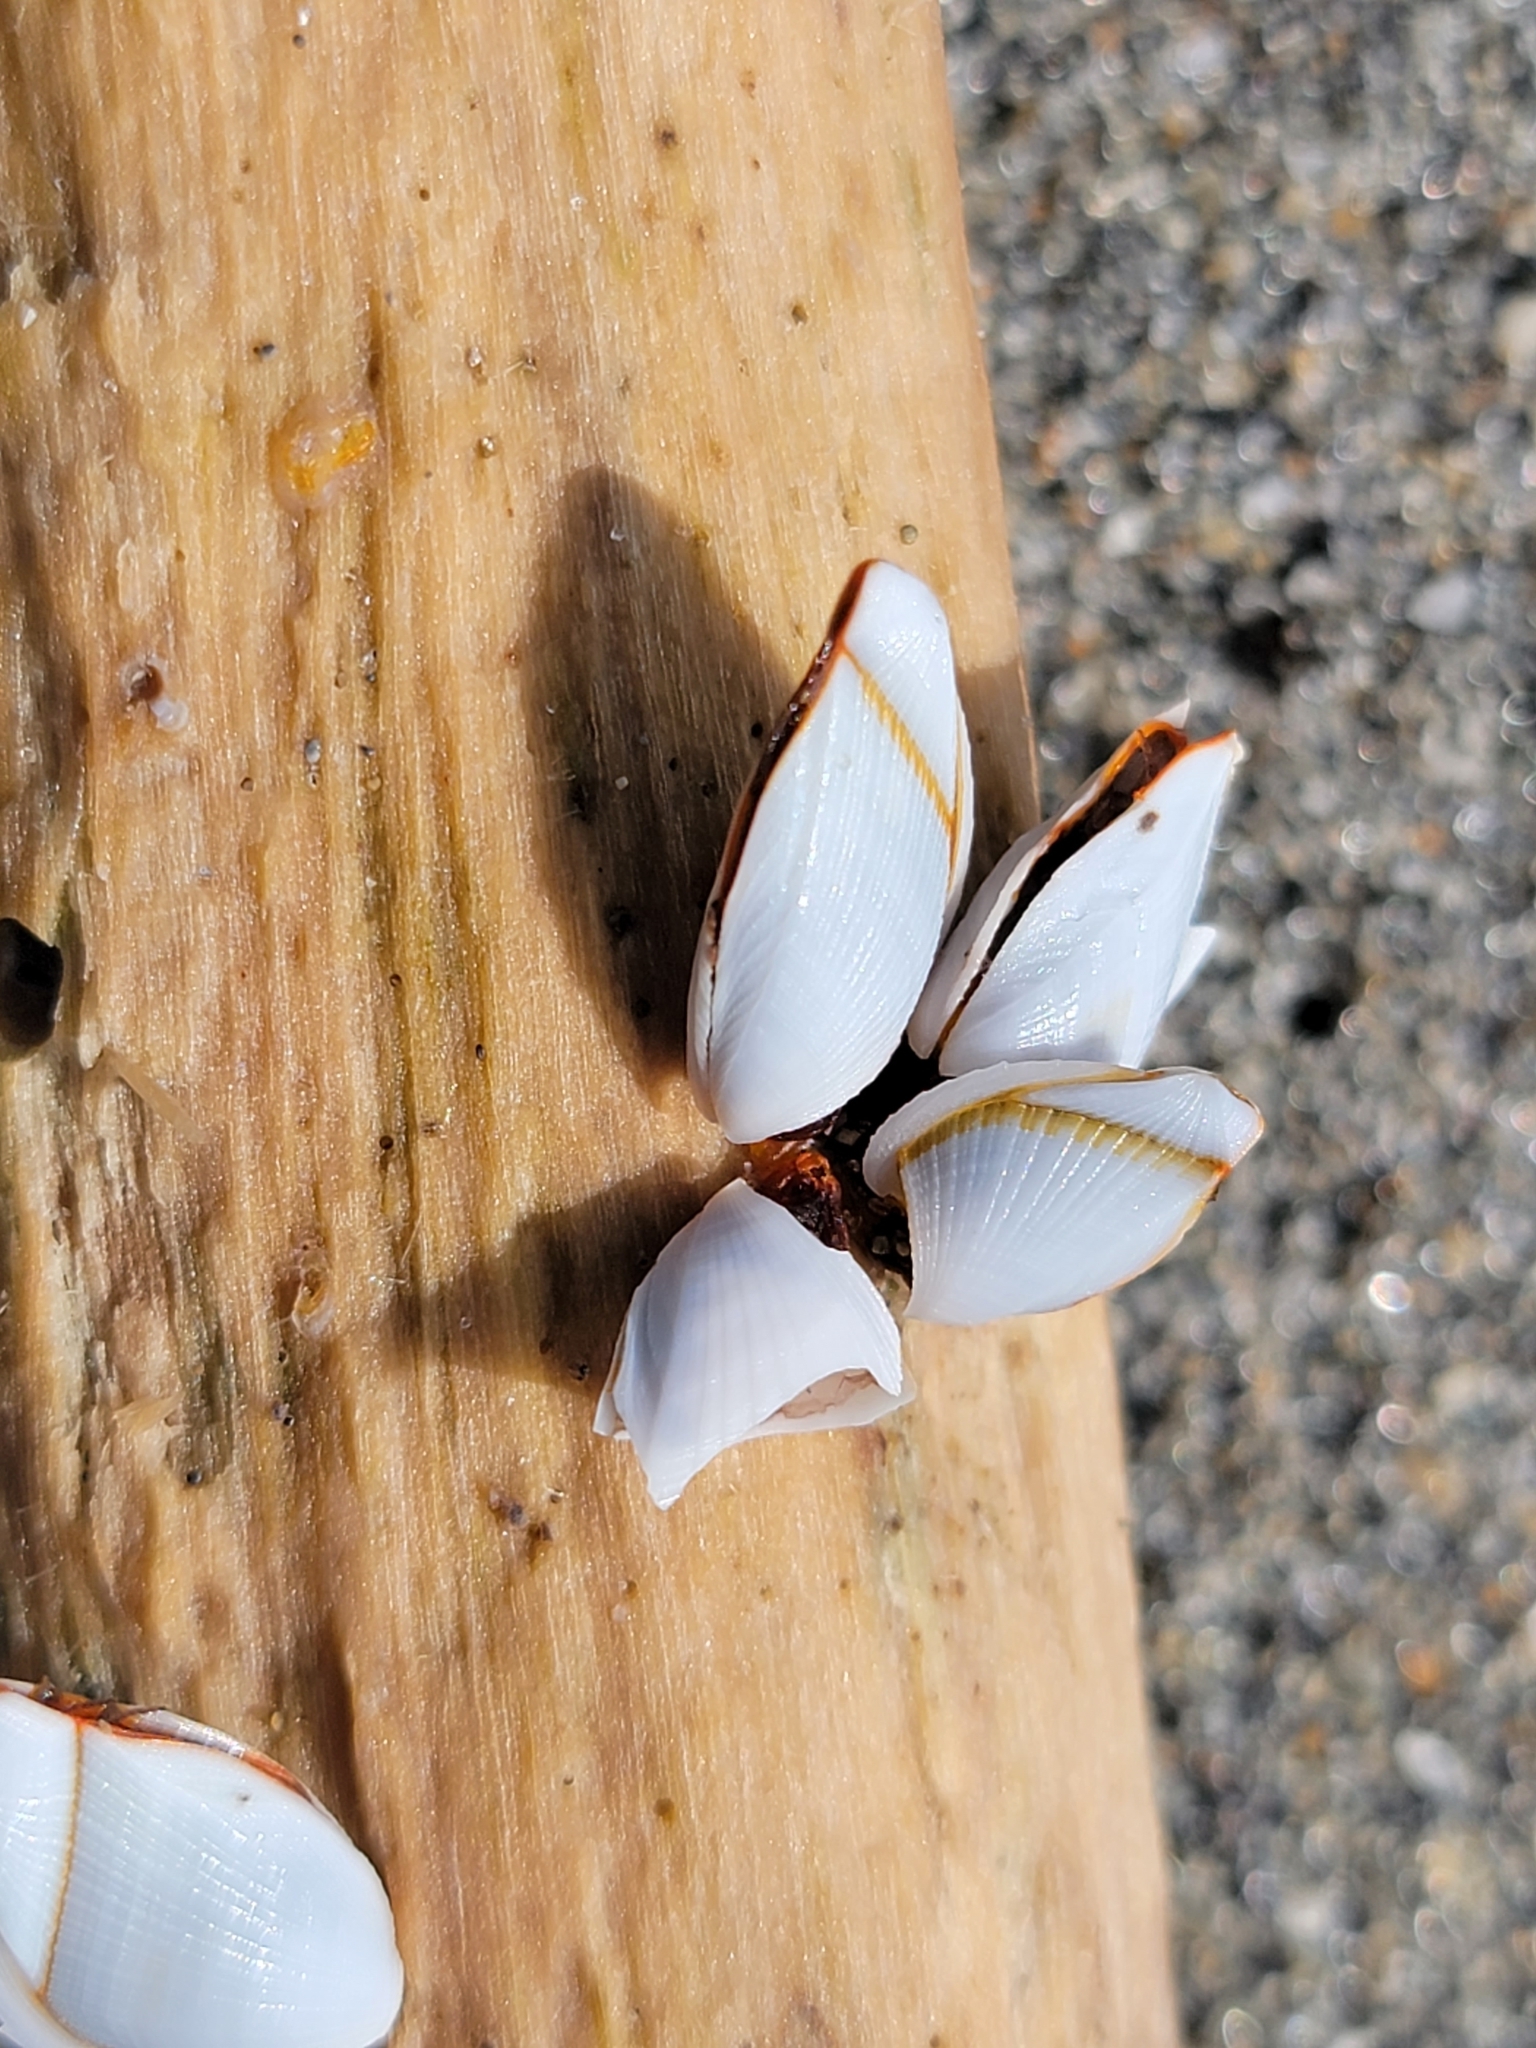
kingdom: Animalia
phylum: Arthropoda
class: Maxillopoda
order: Pedunculata
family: Lepadidae
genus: Lepas
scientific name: Lepas anserifera
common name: Goose barnacle
